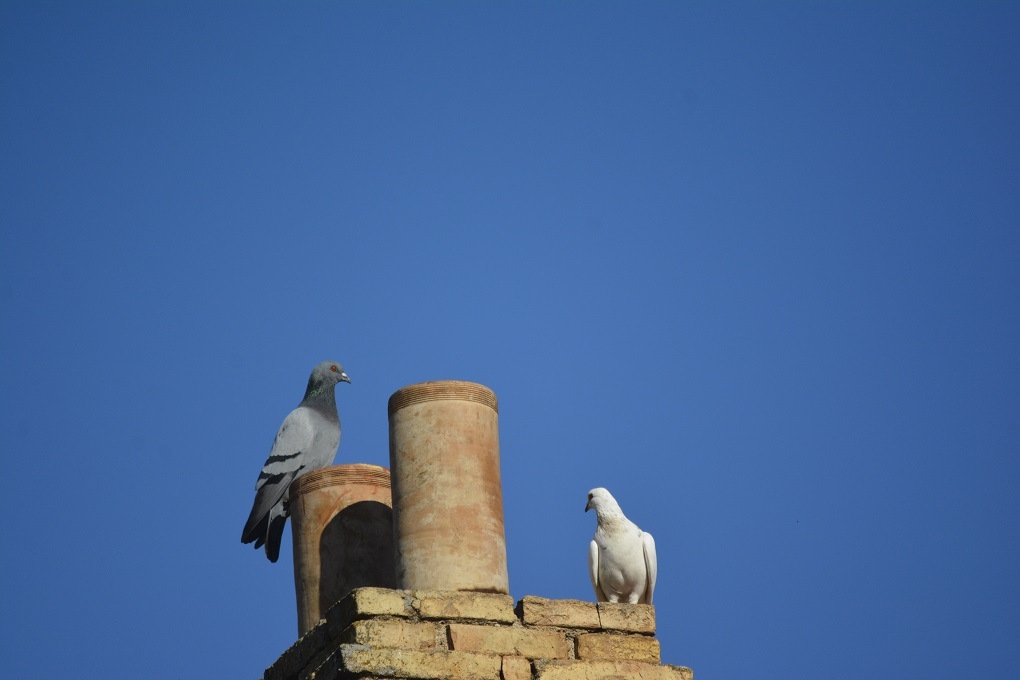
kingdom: Animalia
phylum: Chordata
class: Aves
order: Columbiformes
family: Columbidae
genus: Columba
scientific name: Columba livia
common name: Rock pigeon
